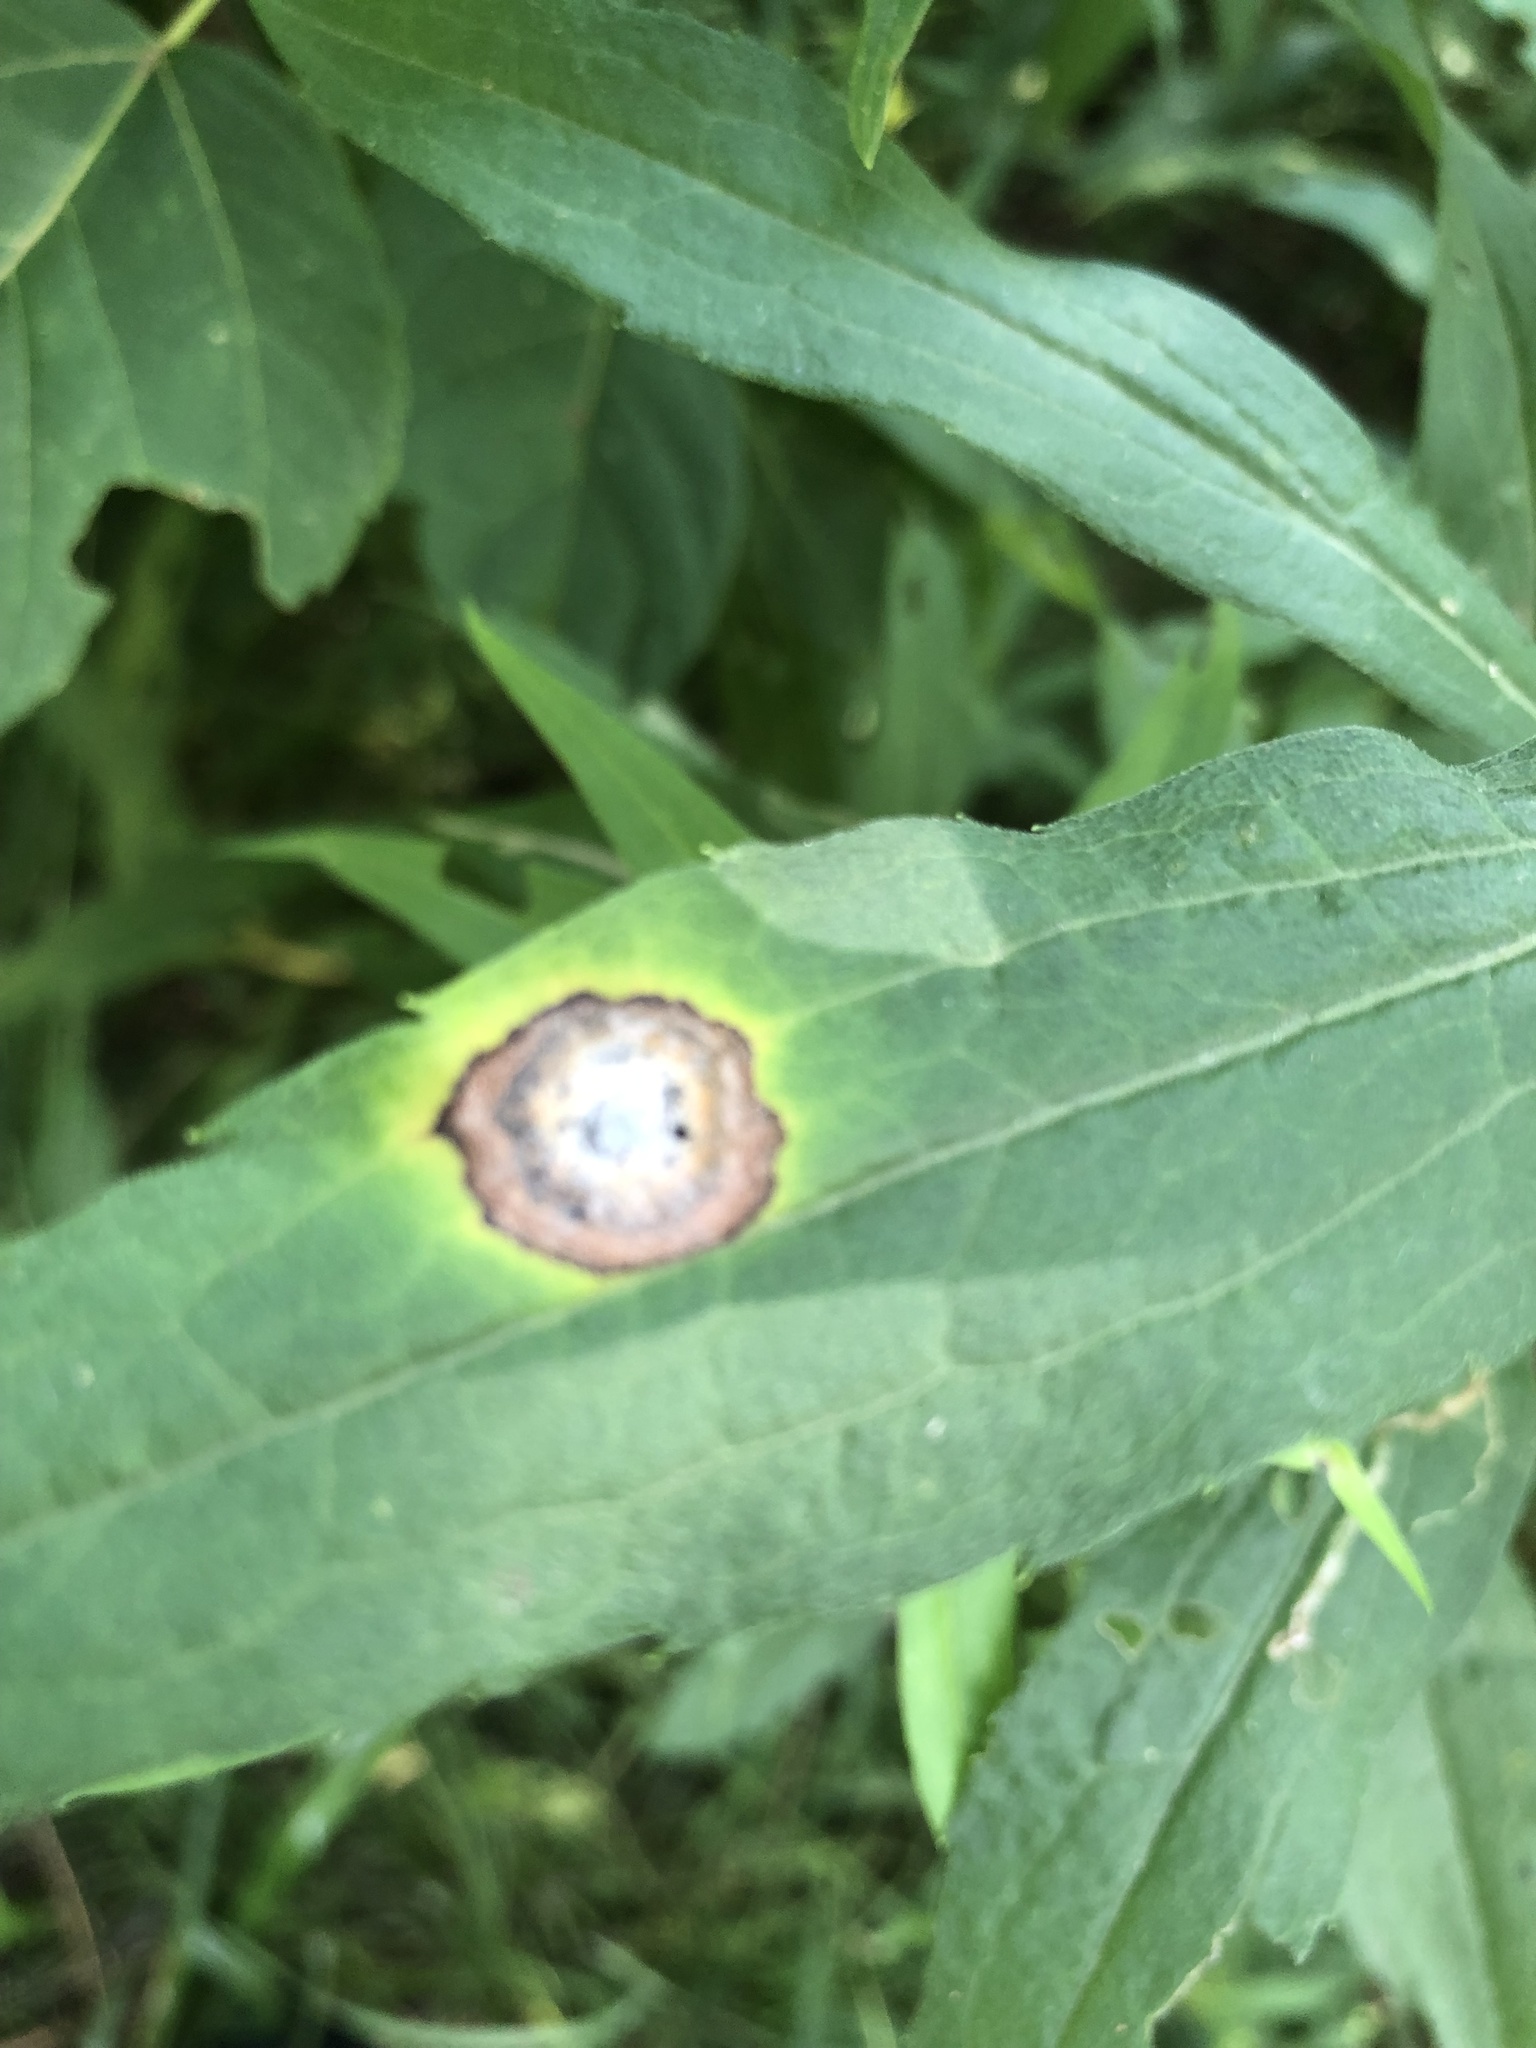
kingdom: Animalia
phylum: Arthropoda
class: Insecta
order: Diptera
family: Cecidomyiidae
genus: Asteromyia
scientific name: Asteromyia carbonifera
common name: Carbonifera goldenrod gall midge
